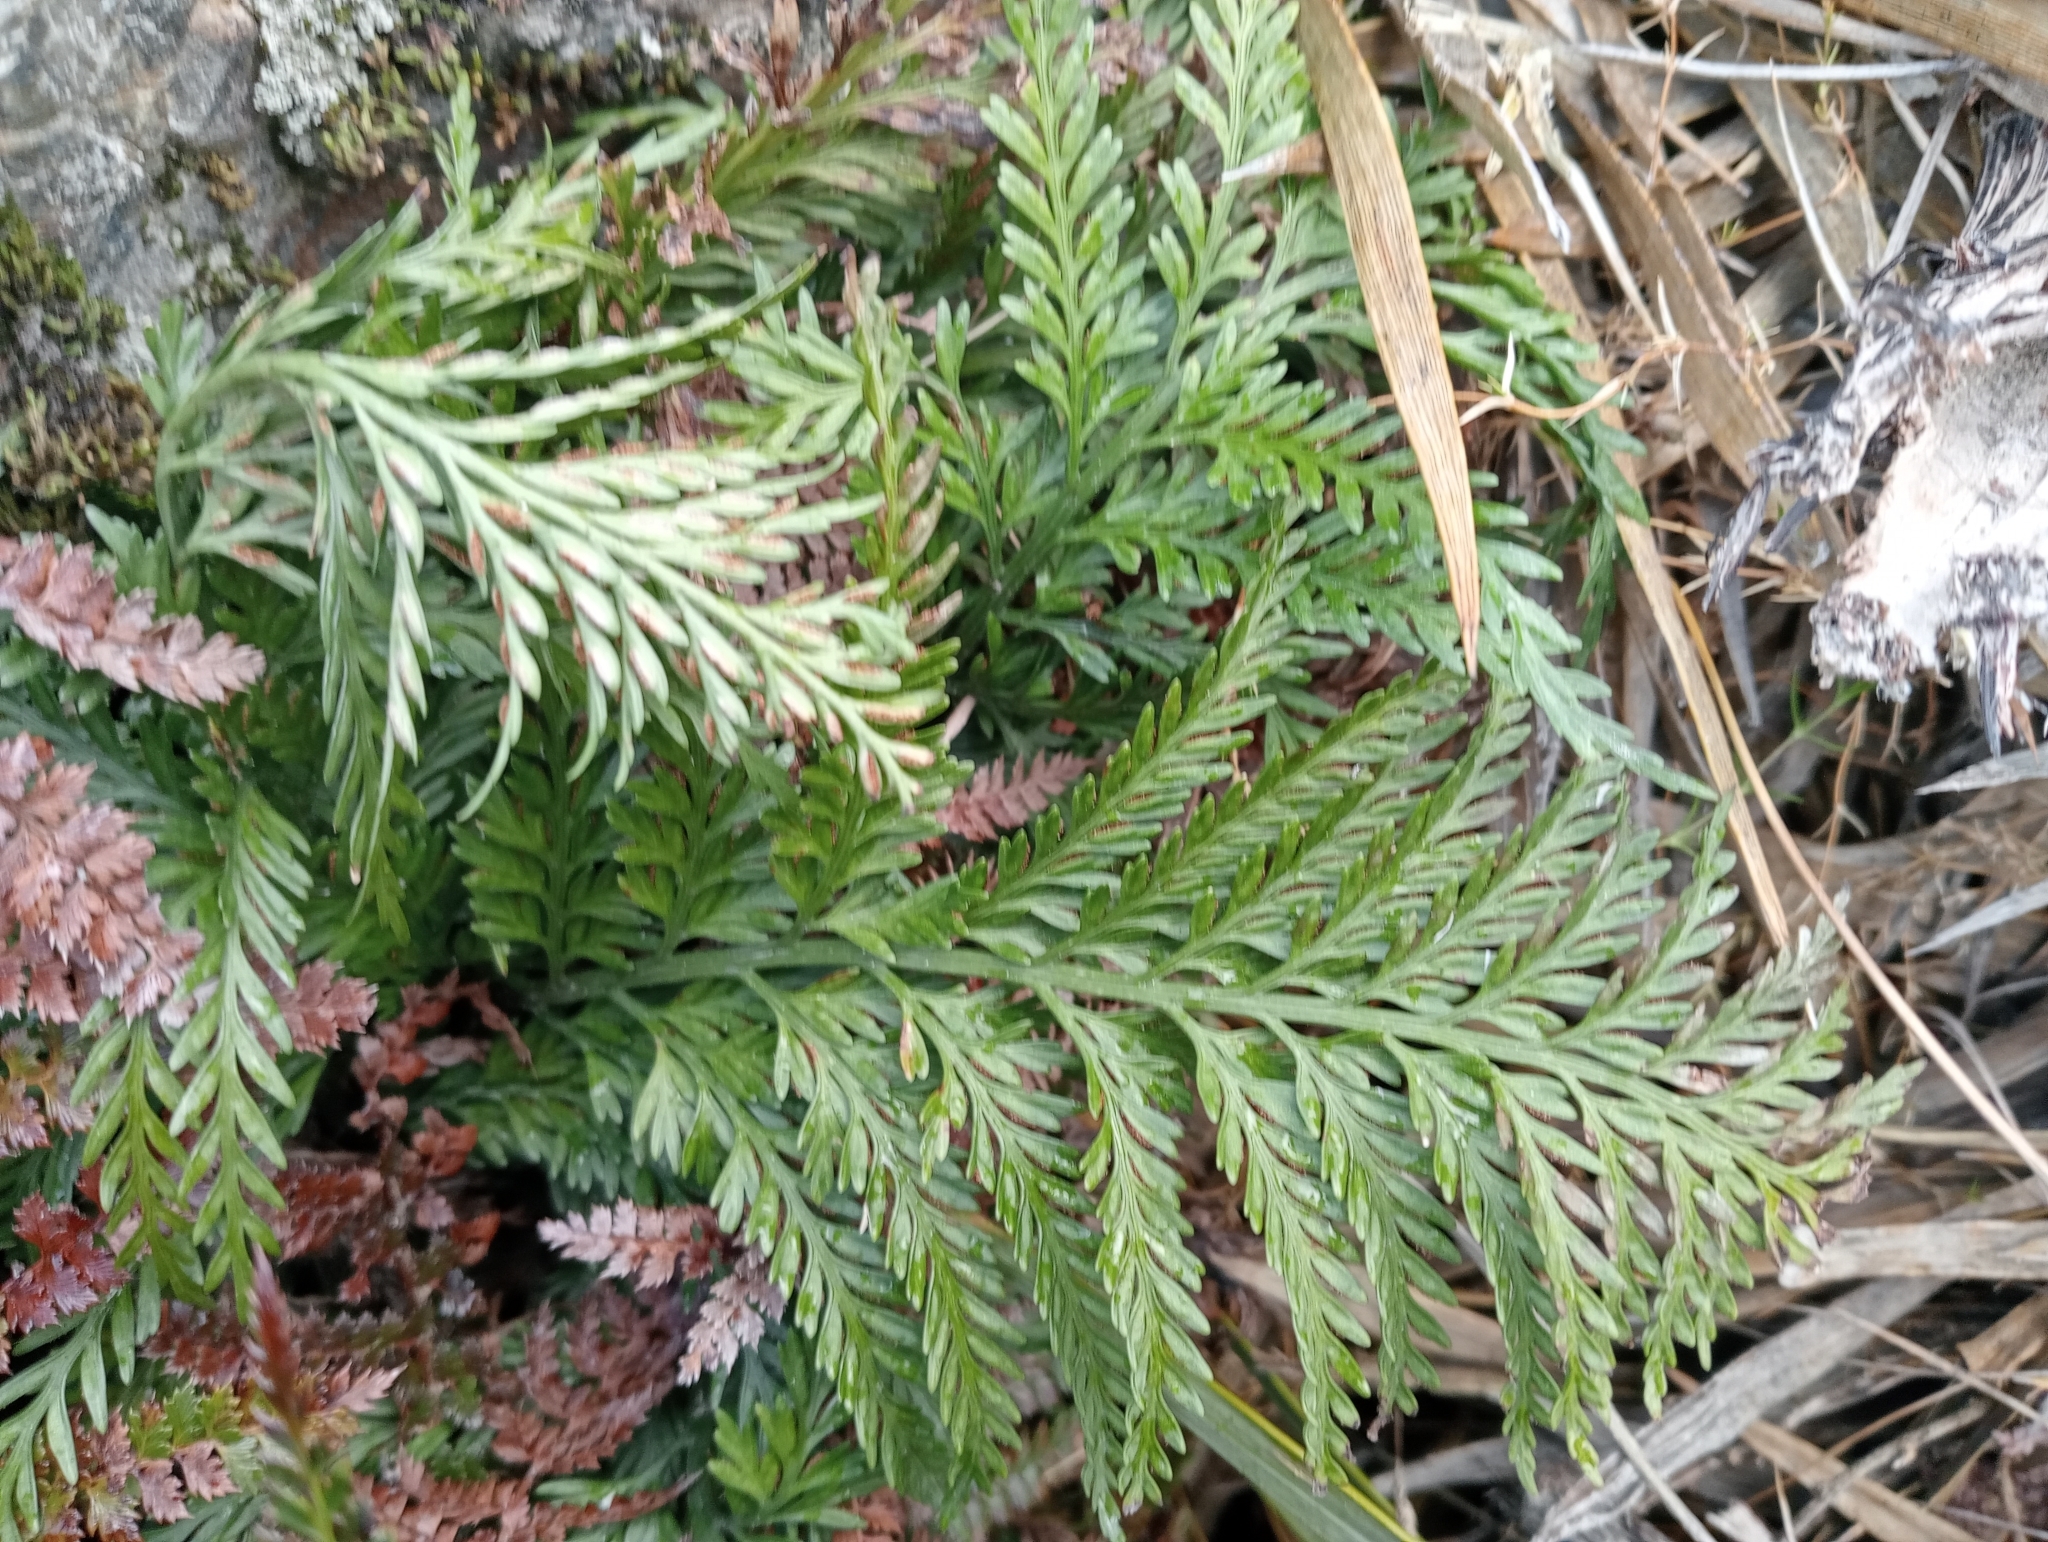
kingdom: Plantae
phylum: Tracheophyta
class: Polypodiopsida
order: Polypodiales
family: Aspleniaceae
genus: Asplenium
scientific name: Asplenium appendiculatum
